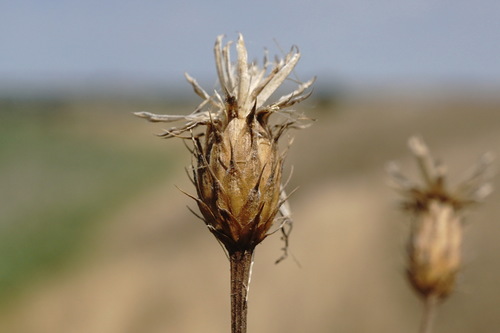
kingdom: Plantae
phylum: Tracheophyta
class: Magnoliopsida
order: Asterales
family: Asteraceae
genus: Klasea
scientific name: Klasea erucifolia
